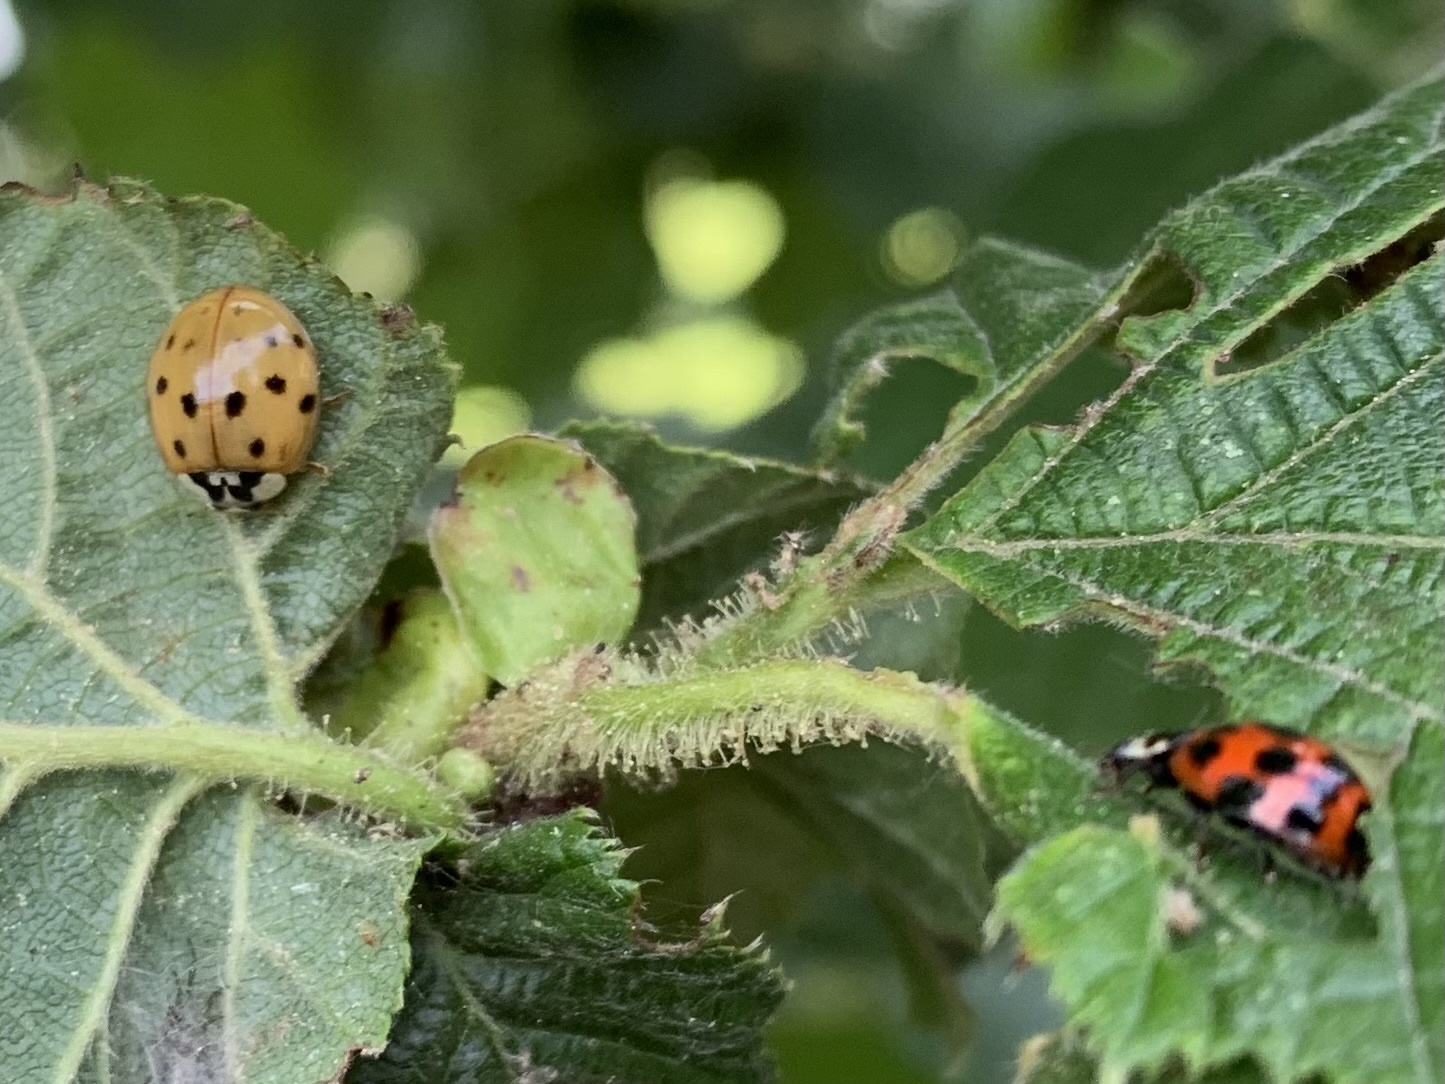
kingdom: Animalia
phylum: Arthropoda
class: Insecta
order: Coleoptera
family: Coccinellidae
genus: Harmonia
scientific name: Harmonia axyridis
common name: Harlequin ladybird
